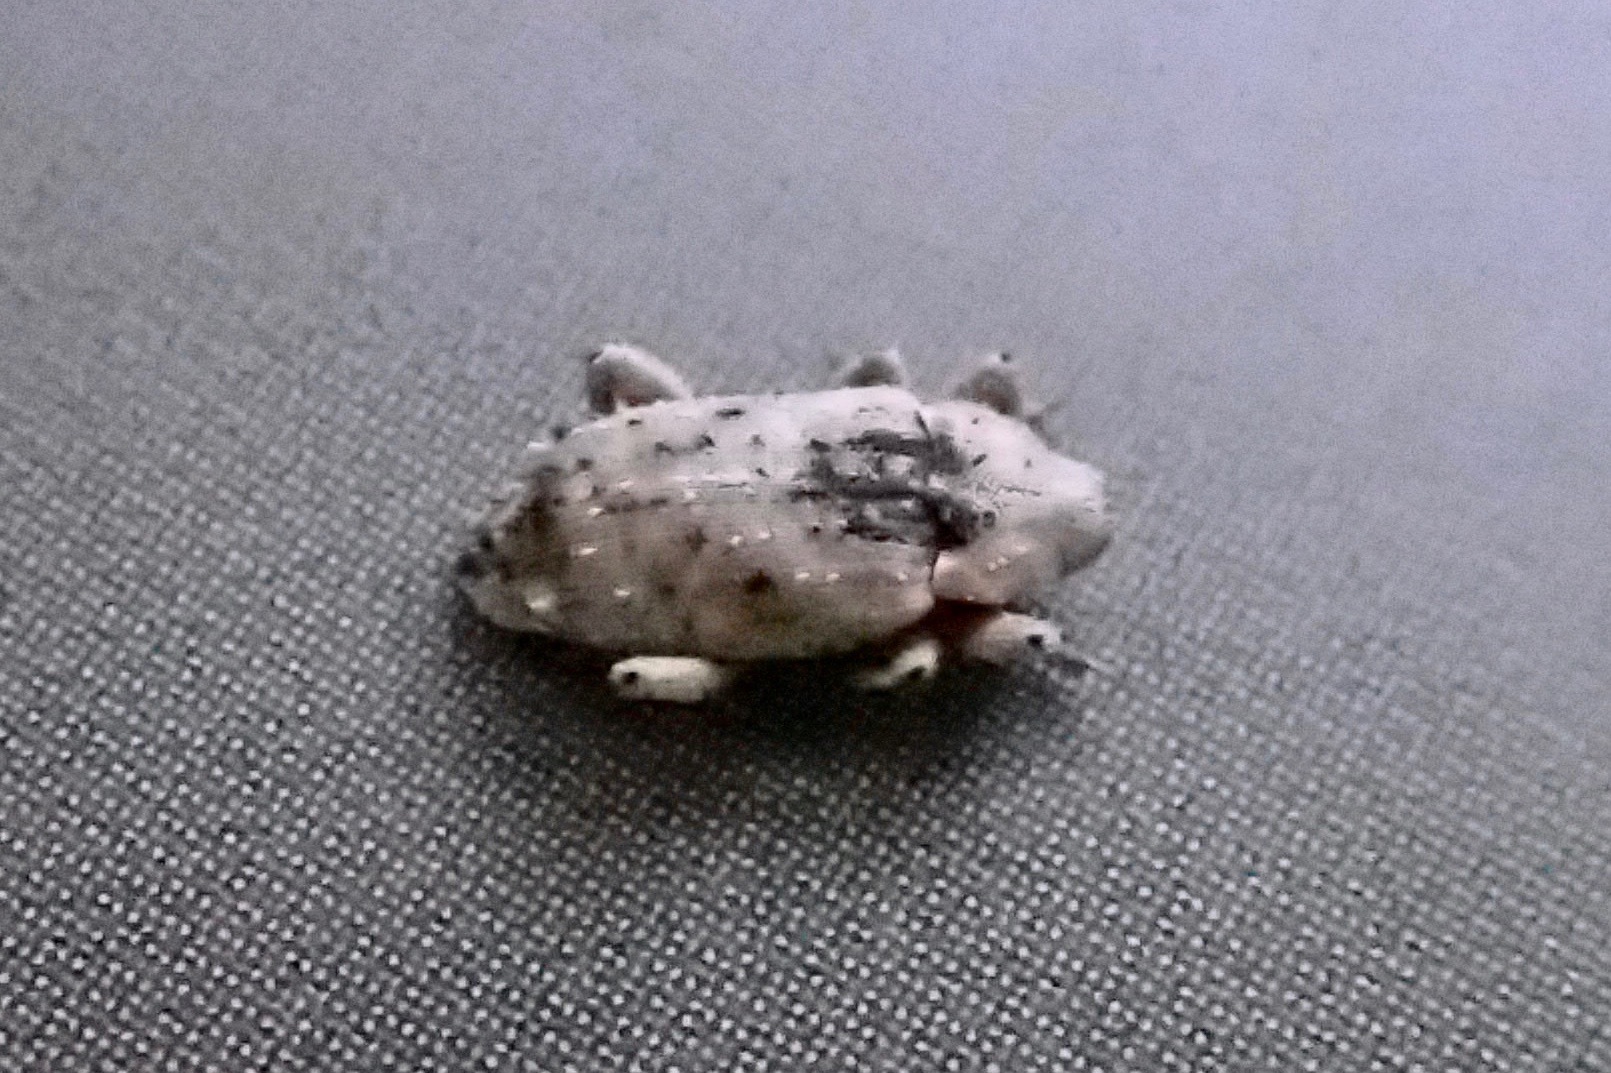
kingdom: Animalia
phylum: Arthropoda
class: Insecta
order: Coleoptera
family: Curculionidae
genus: Mitrastethus
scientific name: Mitrastethus baridioides
